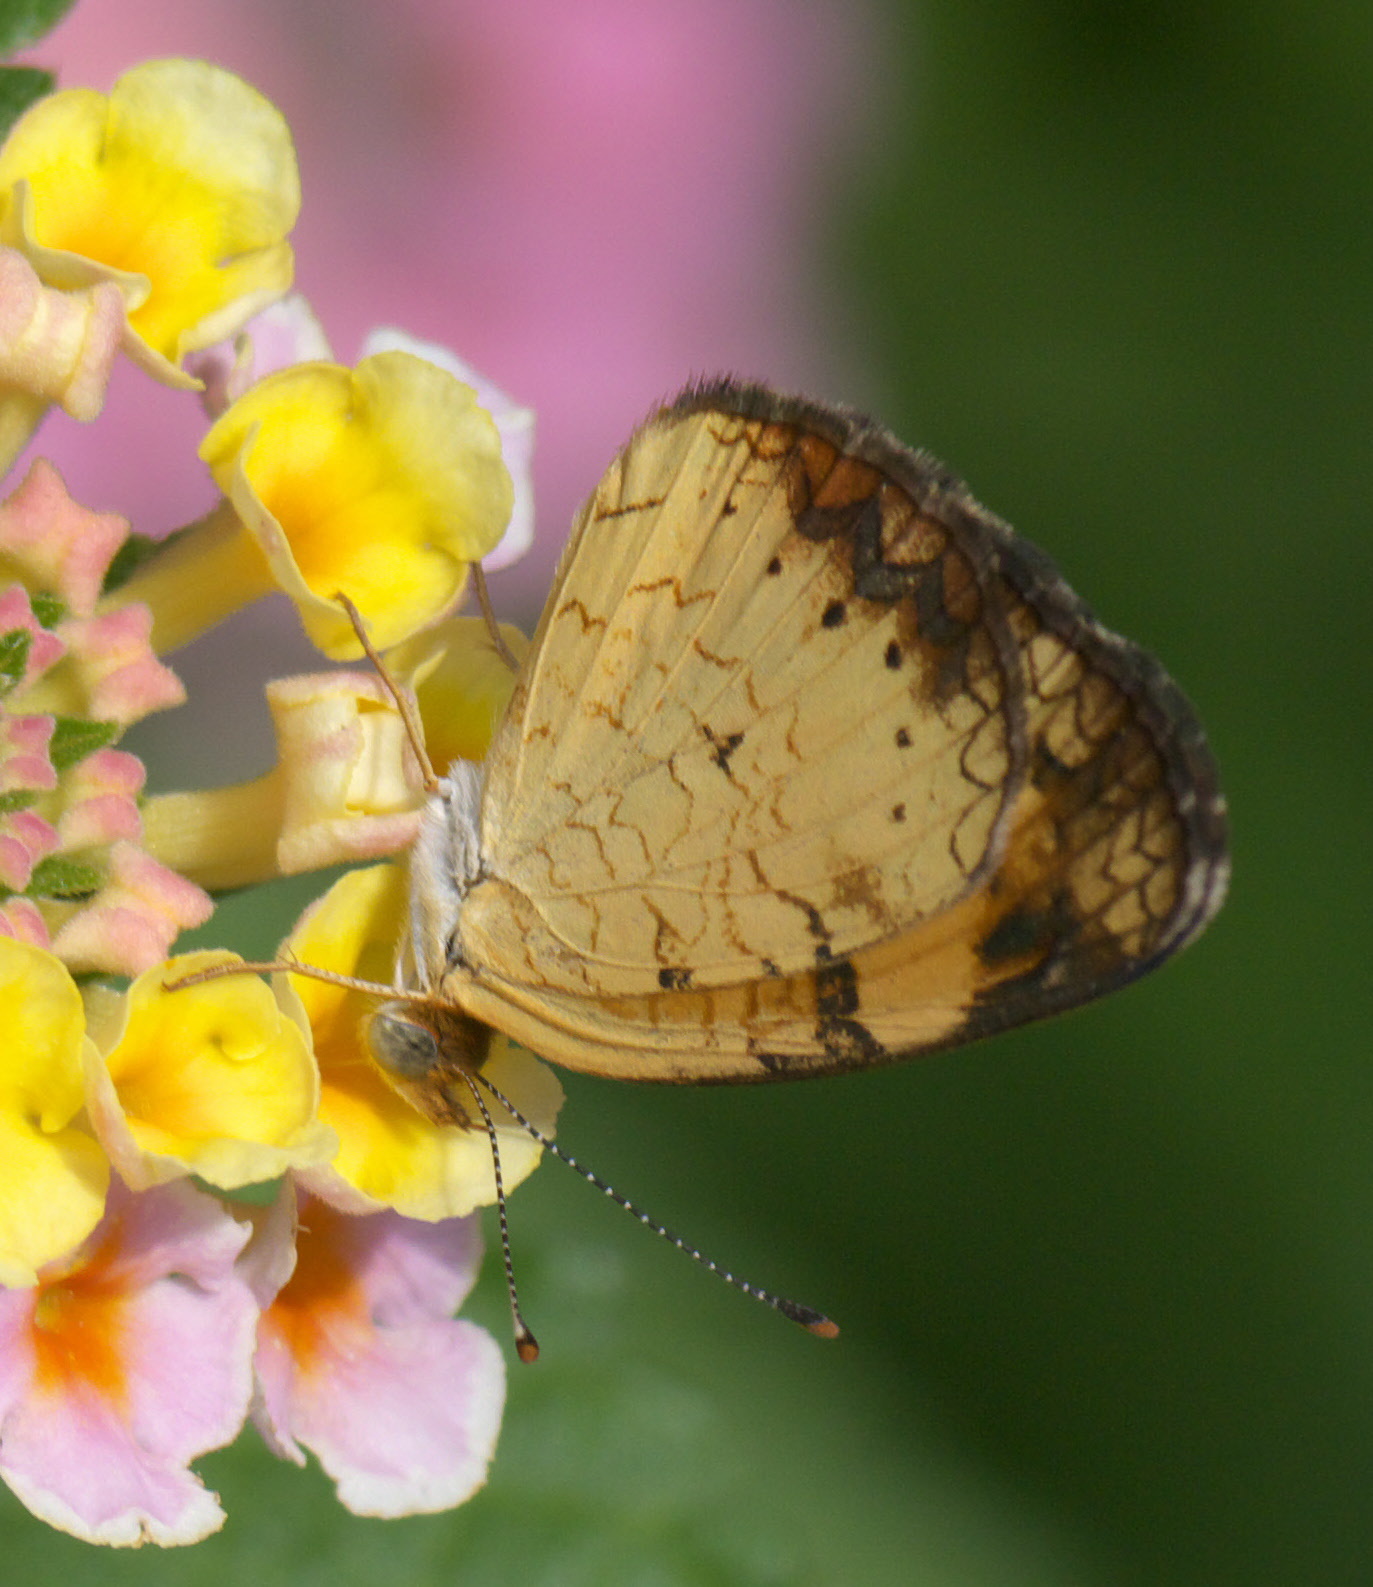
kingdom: Animalia
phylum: Arthropoda
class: Insecta
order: Lepidoptera
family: Nymphalidae
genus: Phyciodes
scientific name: Phyciodes tharos
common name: Pearl crescent
